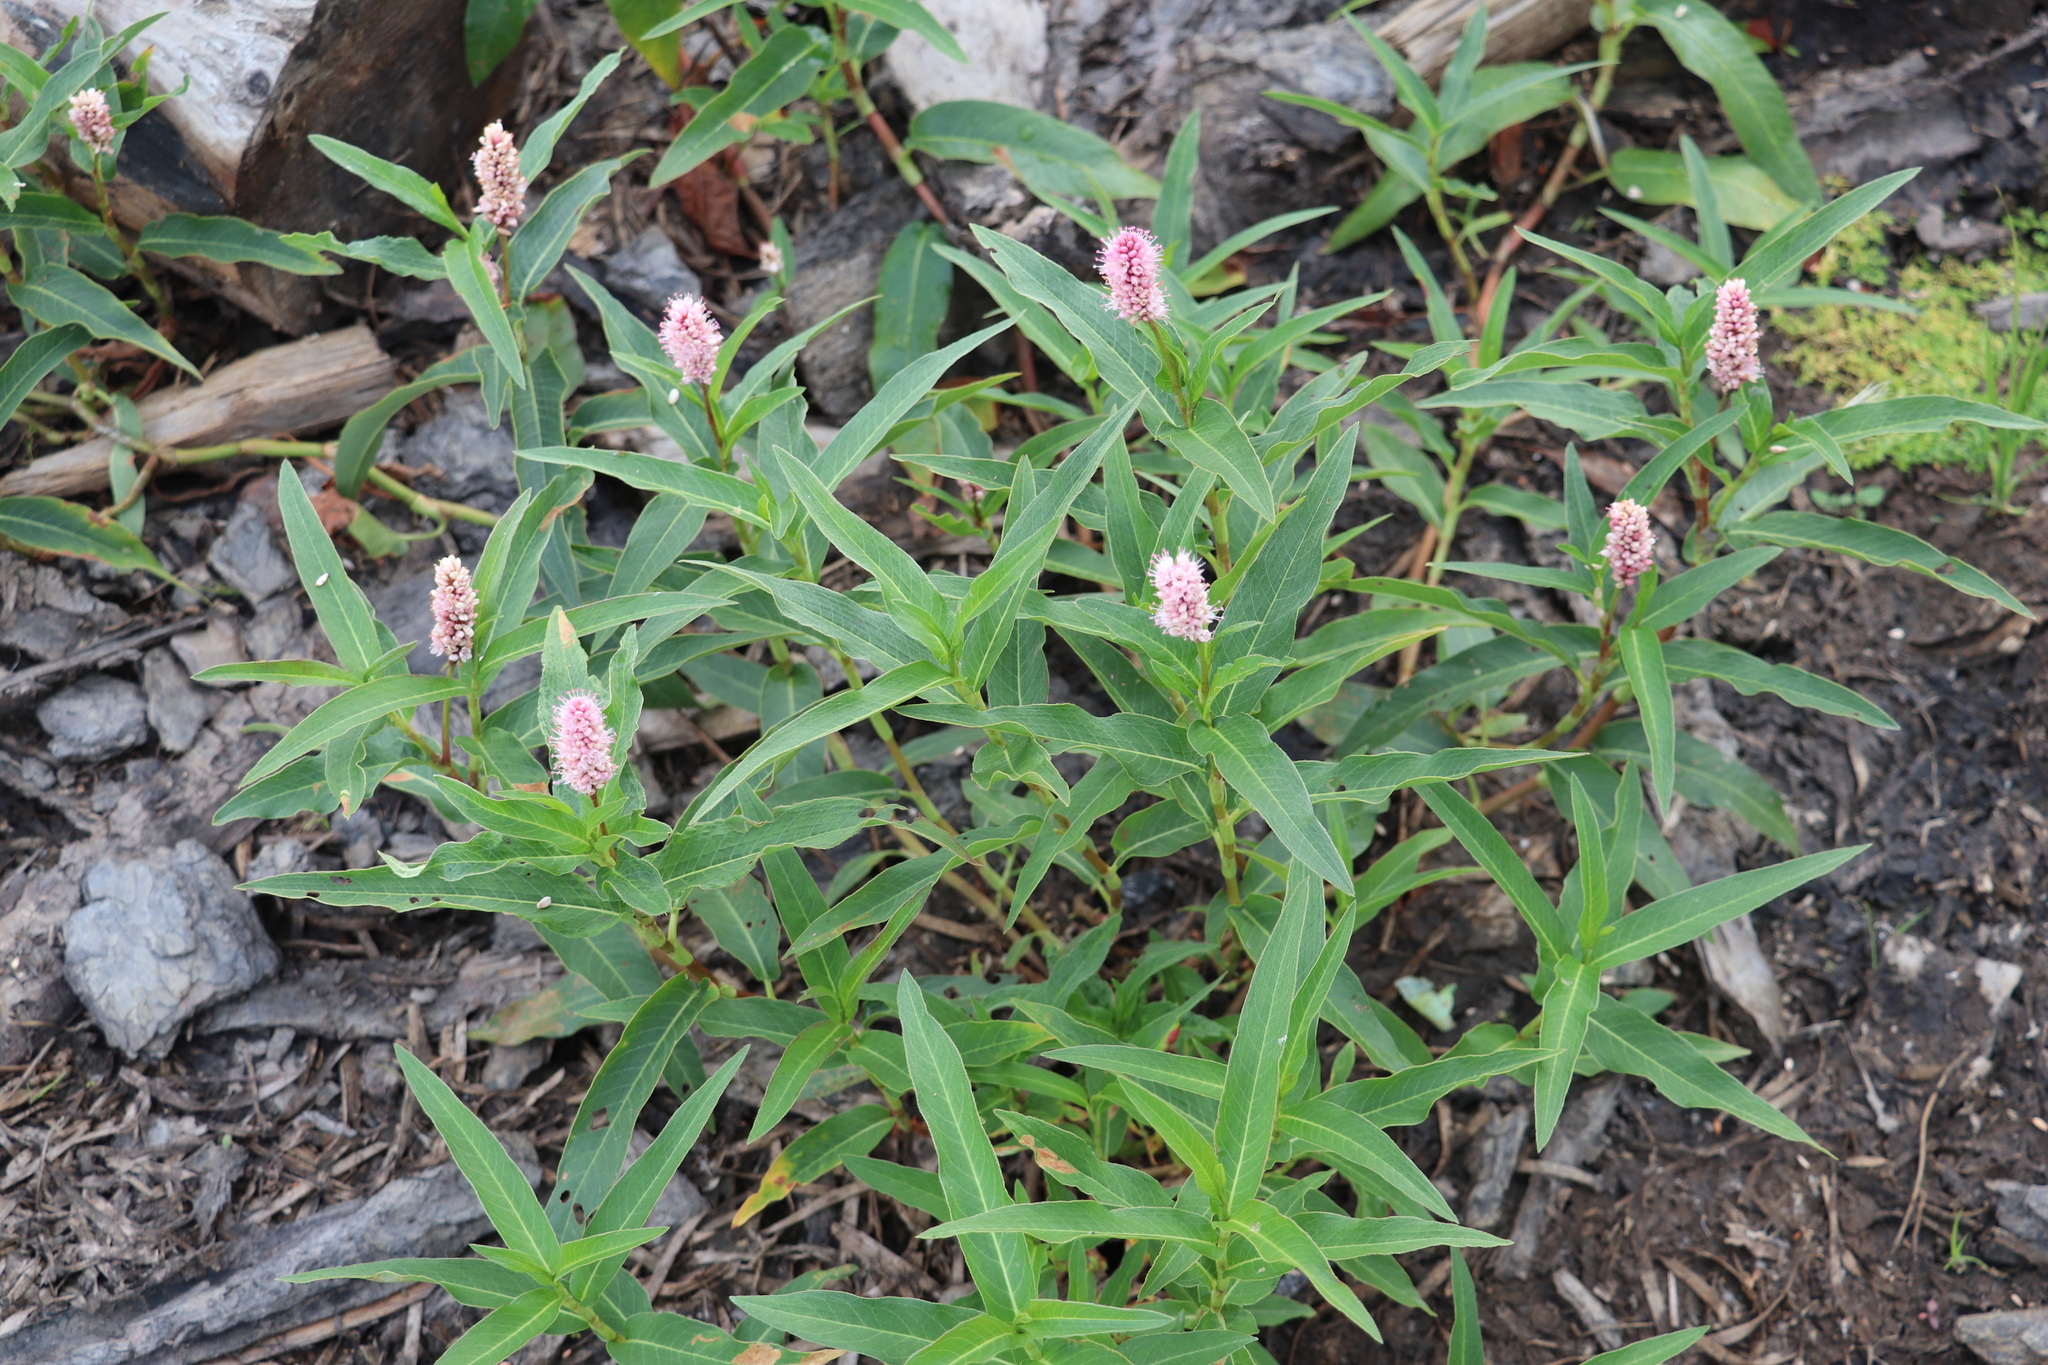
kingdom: Plantae
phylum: Tracheophyta
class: Magnoliopsida
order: Caryophyllales
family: Polygonaceae
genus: Persicaria
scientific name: Persicaria amphibia
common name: Amphibious bistort
